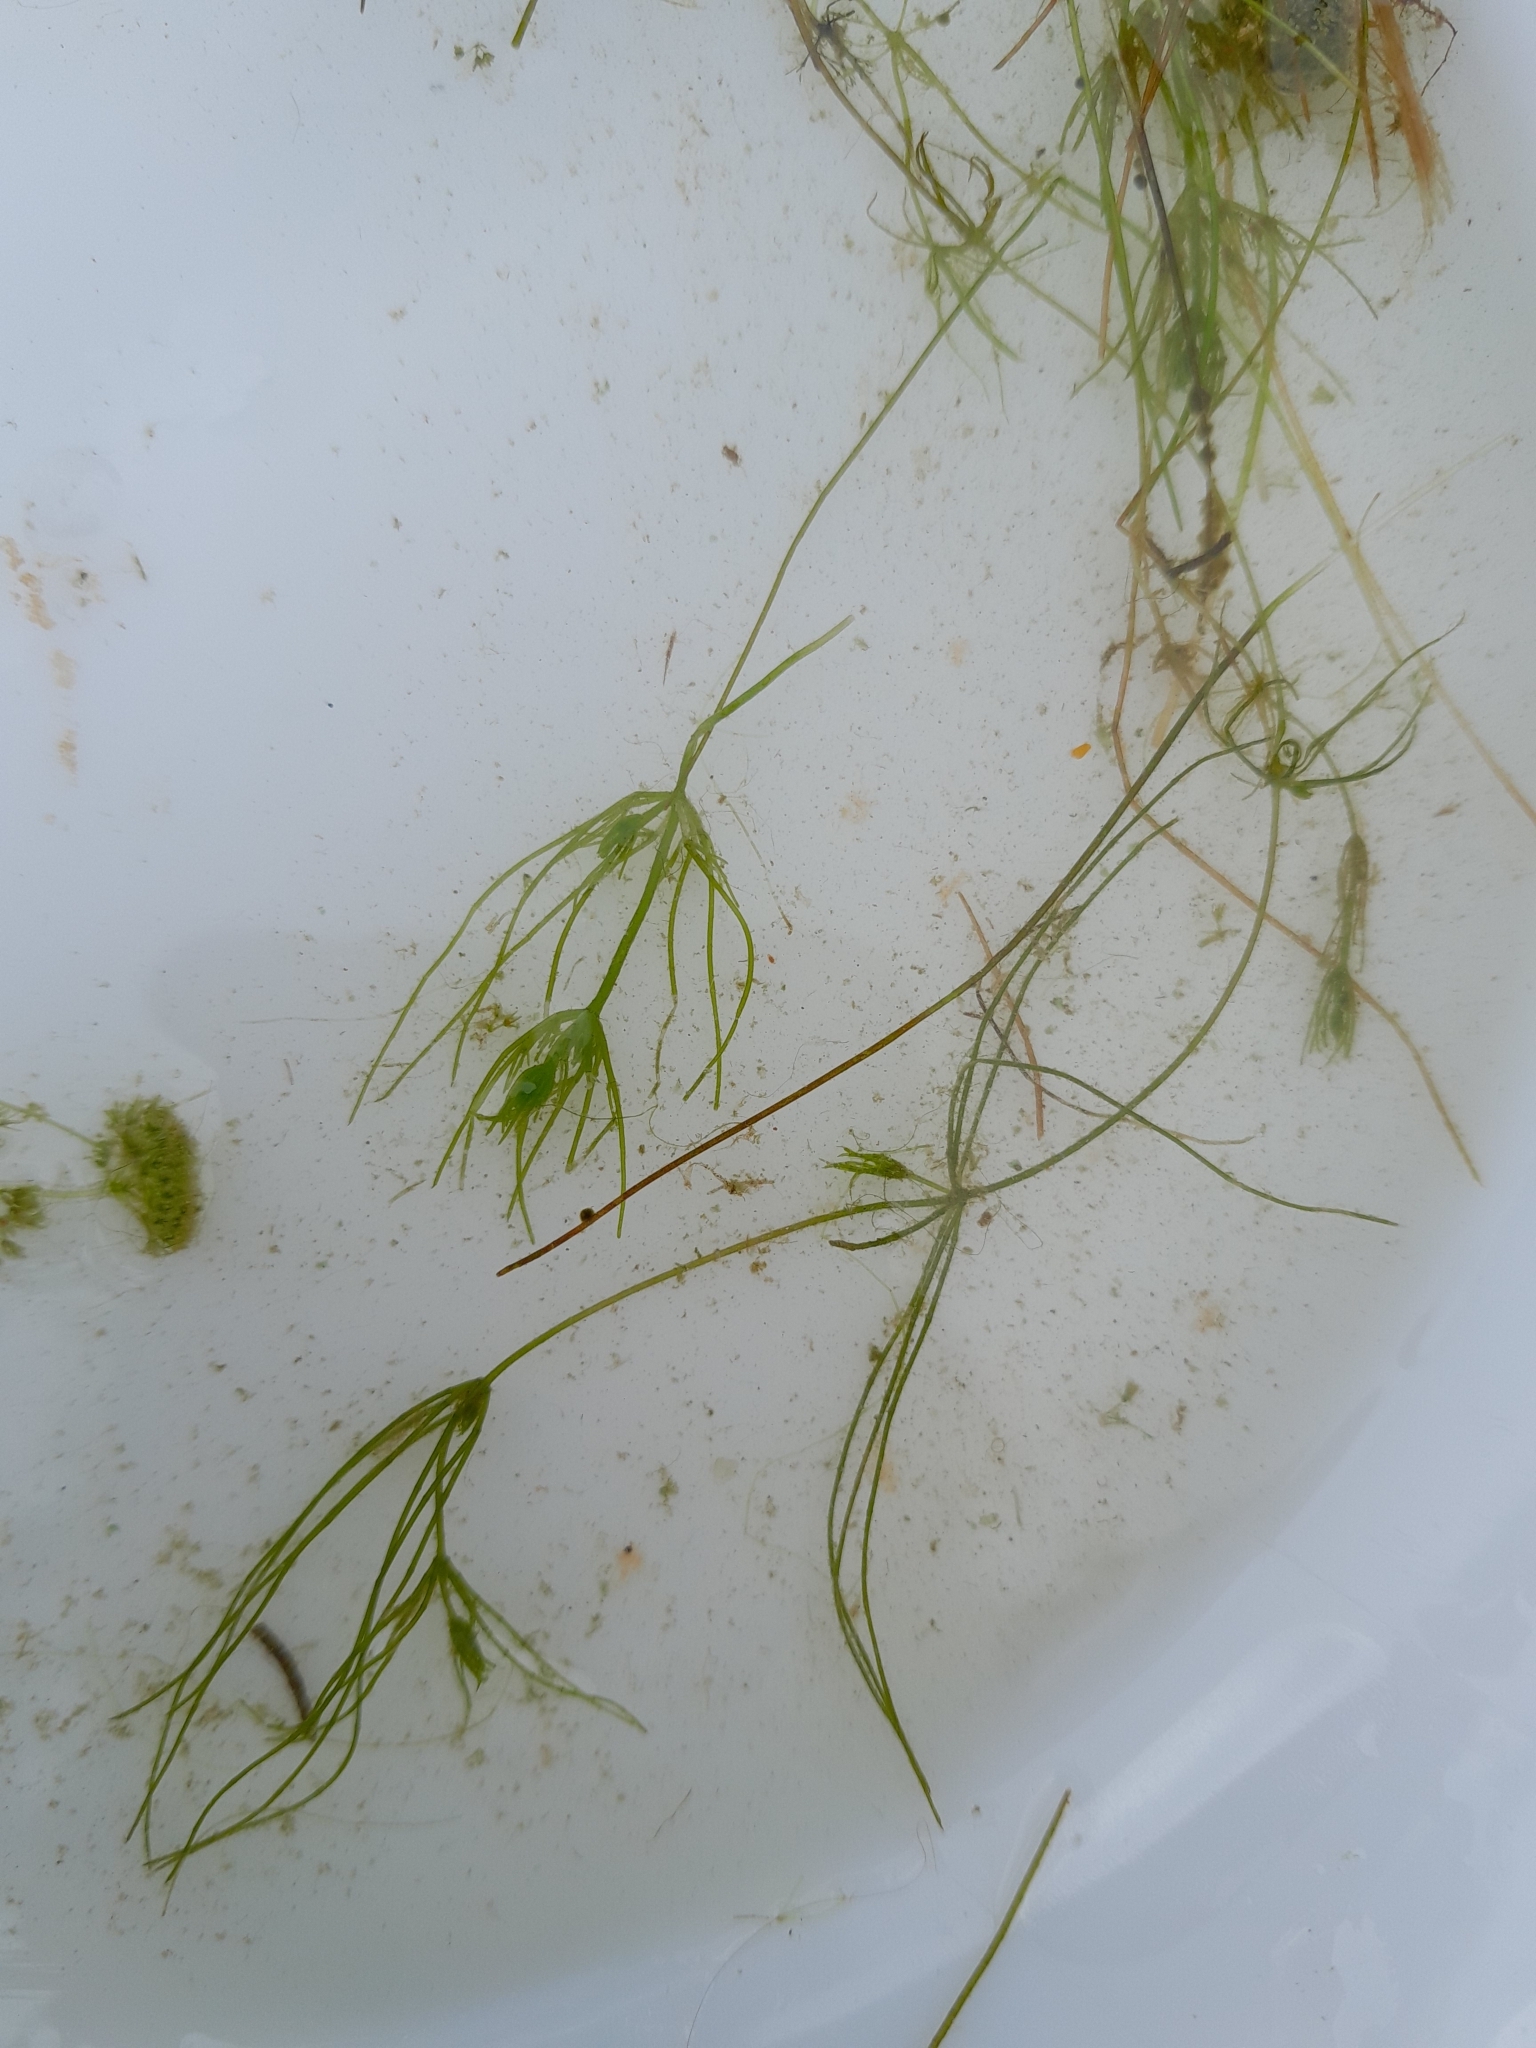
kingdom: Plantae
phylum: Charophyta
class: Charophyceae
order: Charales
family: Characeae
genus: Chara
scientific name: Chara globularis
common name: Fragile stonewort
